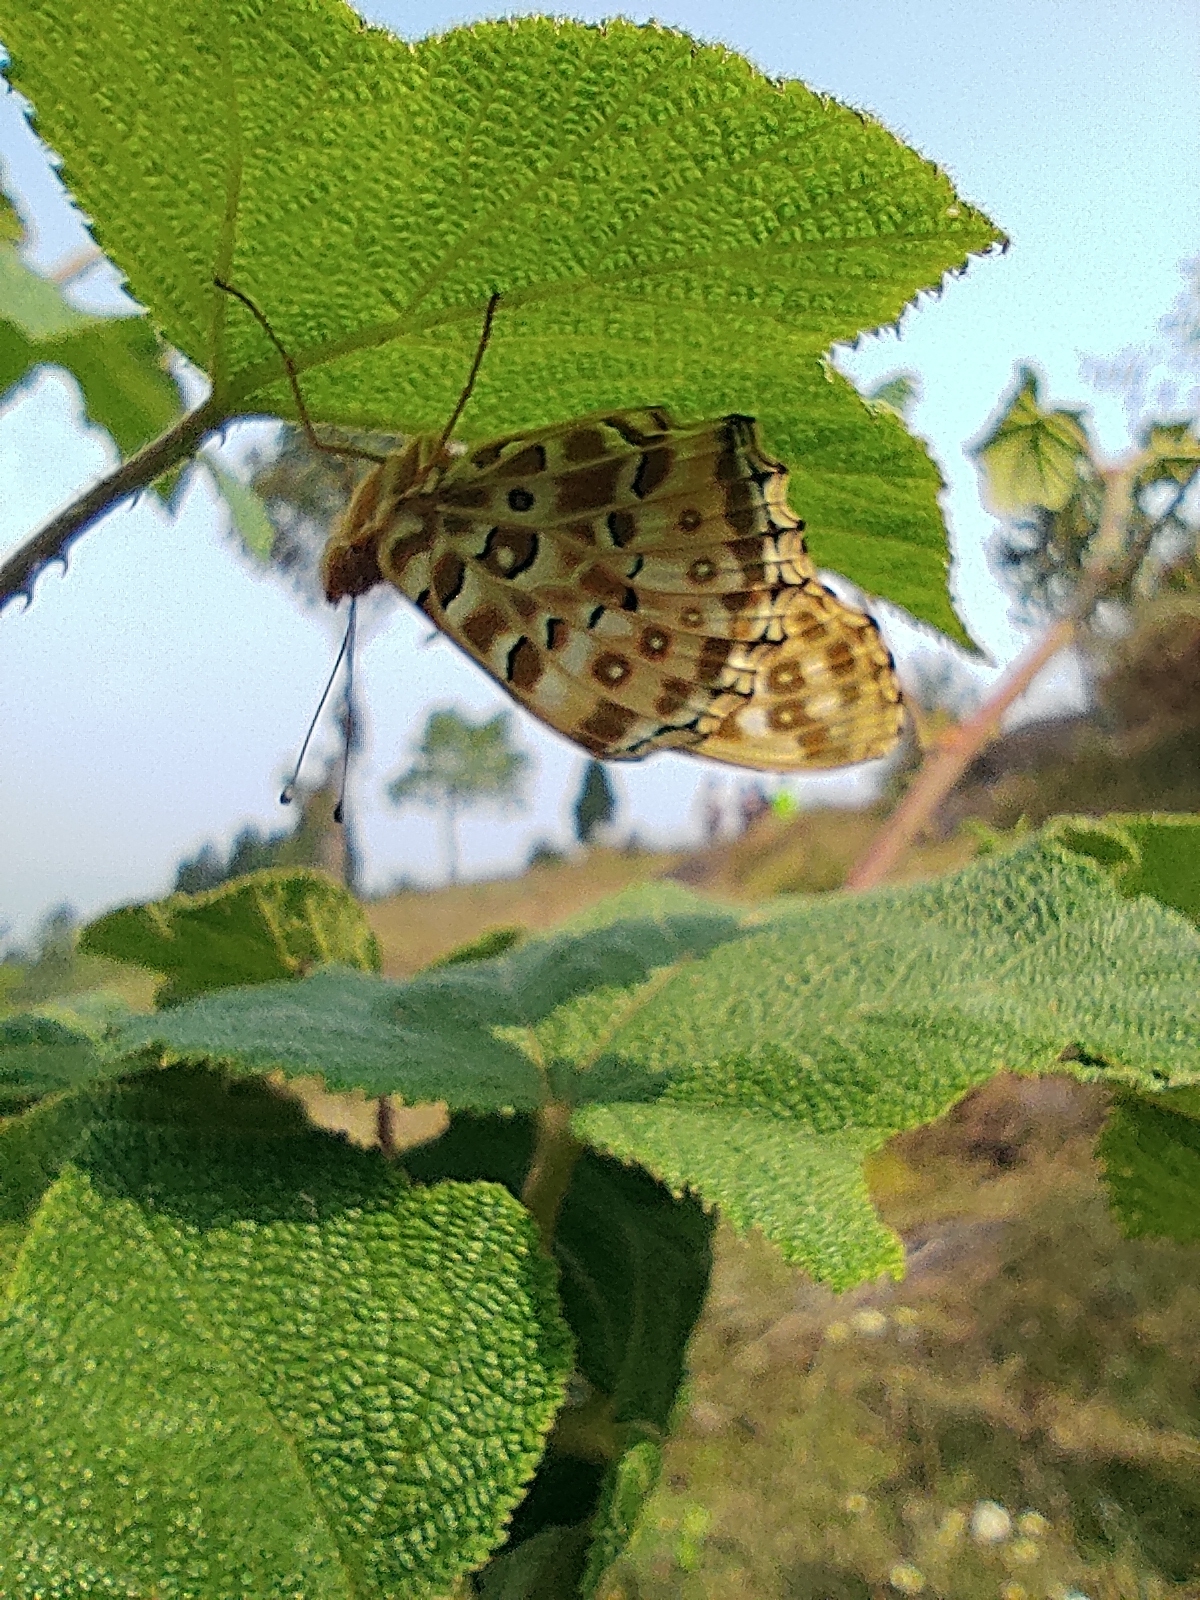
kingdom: Animalia
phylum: Arthropoda
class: Insecta
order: Lepidoptera
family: Nymphalidae
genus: Argynnis
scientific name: Argynnis hyperbius
